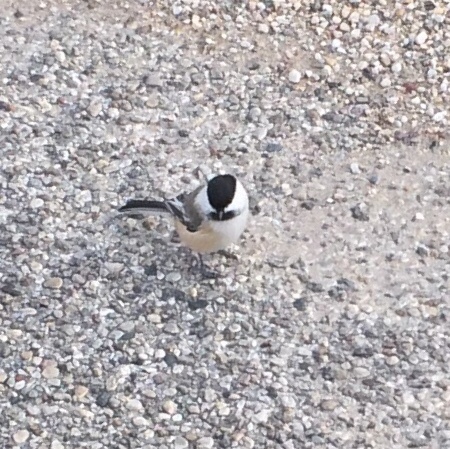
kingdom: Animalia
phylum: Chordata
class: Aves
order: Passeriformes
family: Paridae
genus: Poecile
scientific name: Poecile atricapillus
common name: Black-capped chickadee
